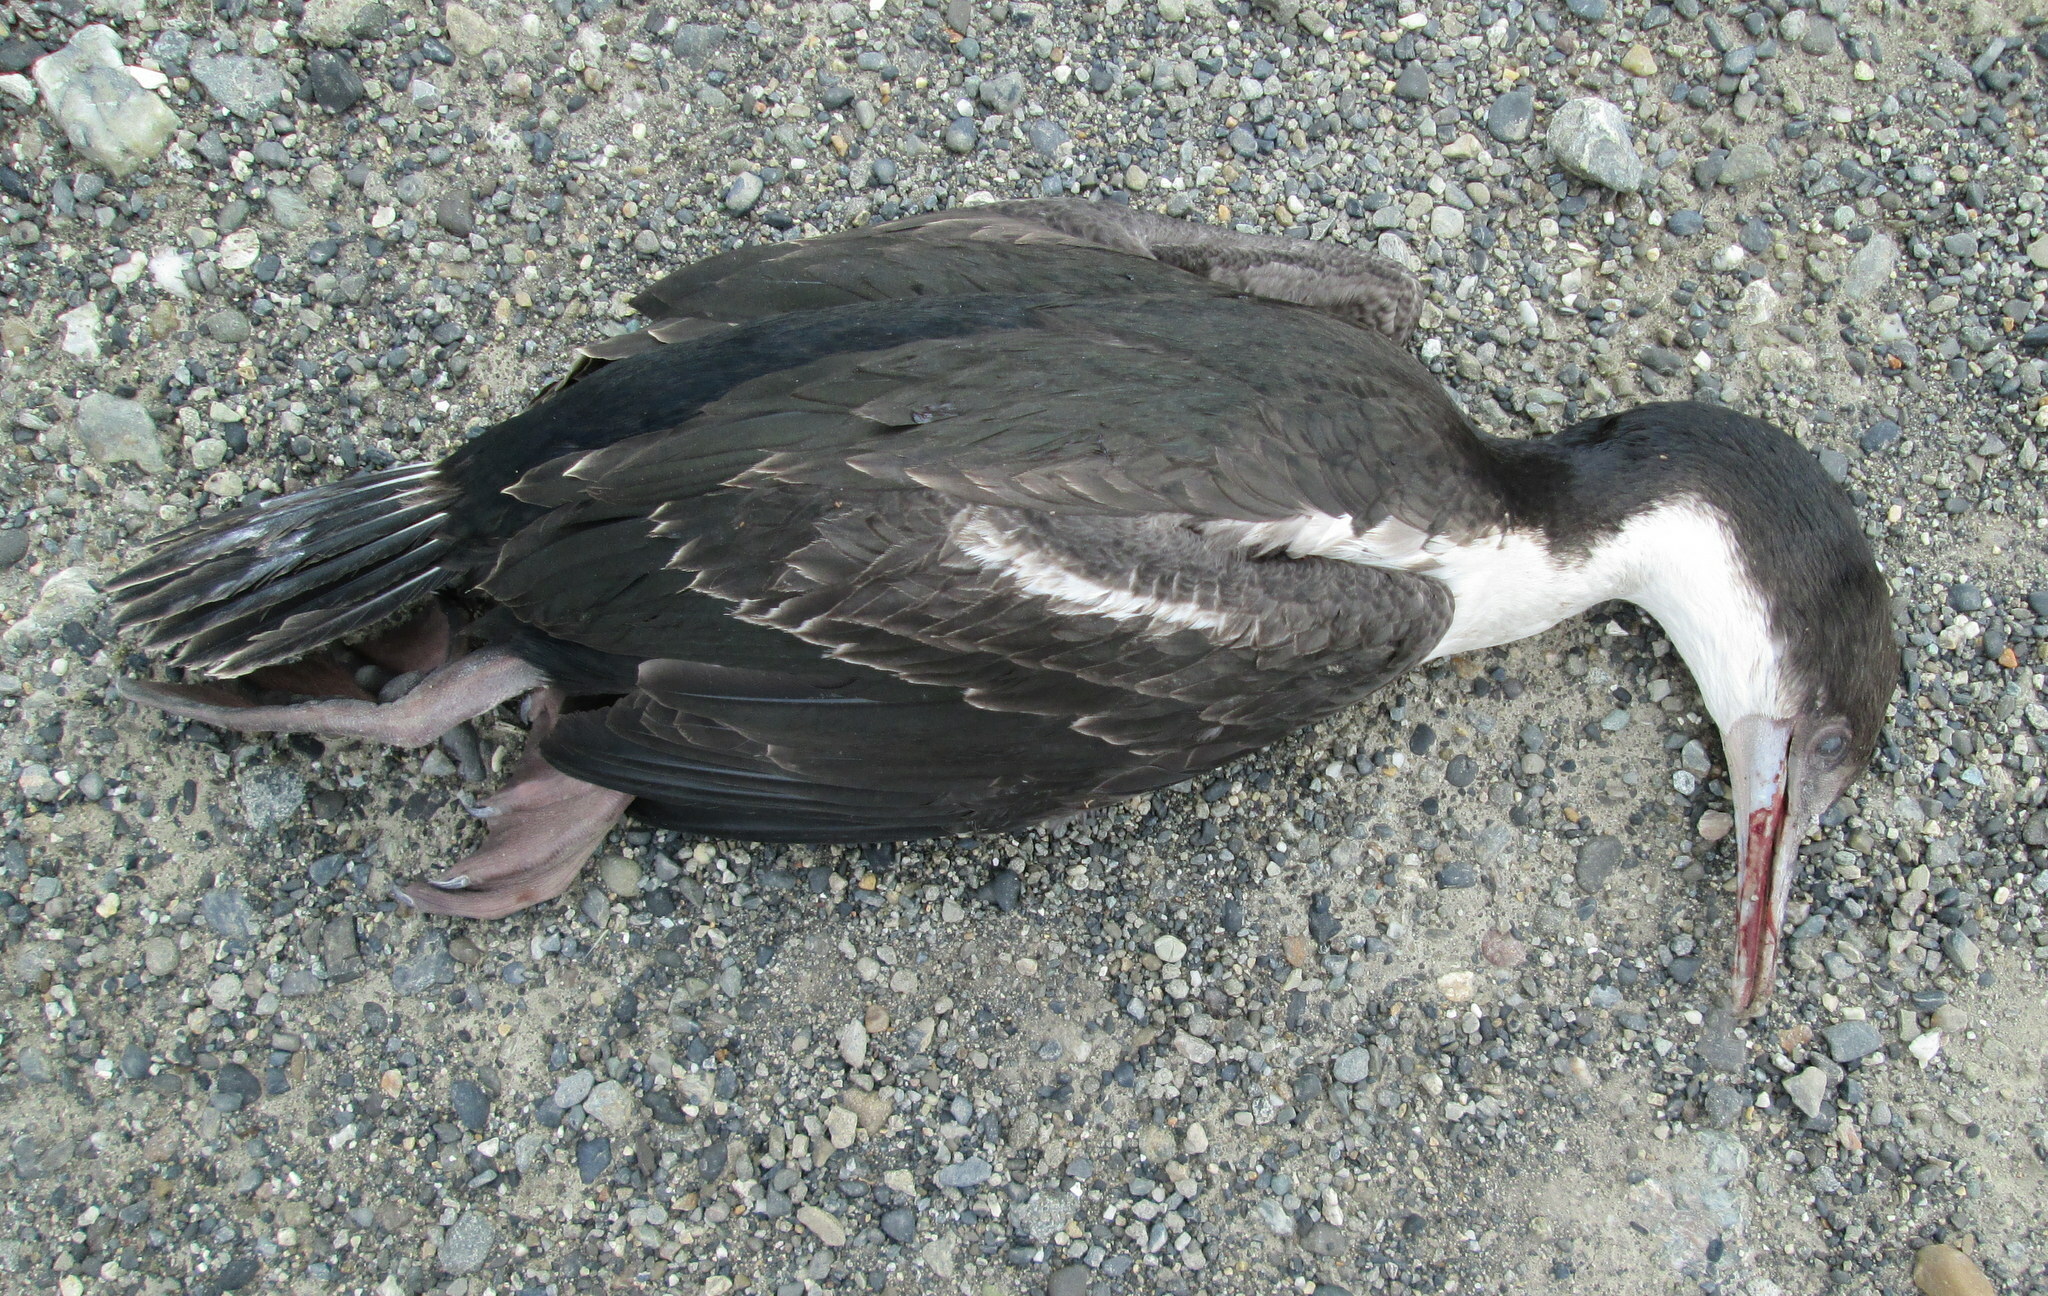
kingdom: Animalia
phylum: Chordata
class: Aves
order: Suliformes
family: Phalacrocoracidae
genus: Leucocarbo
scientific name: Leucocarbo atriceps
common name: Imperial shag
